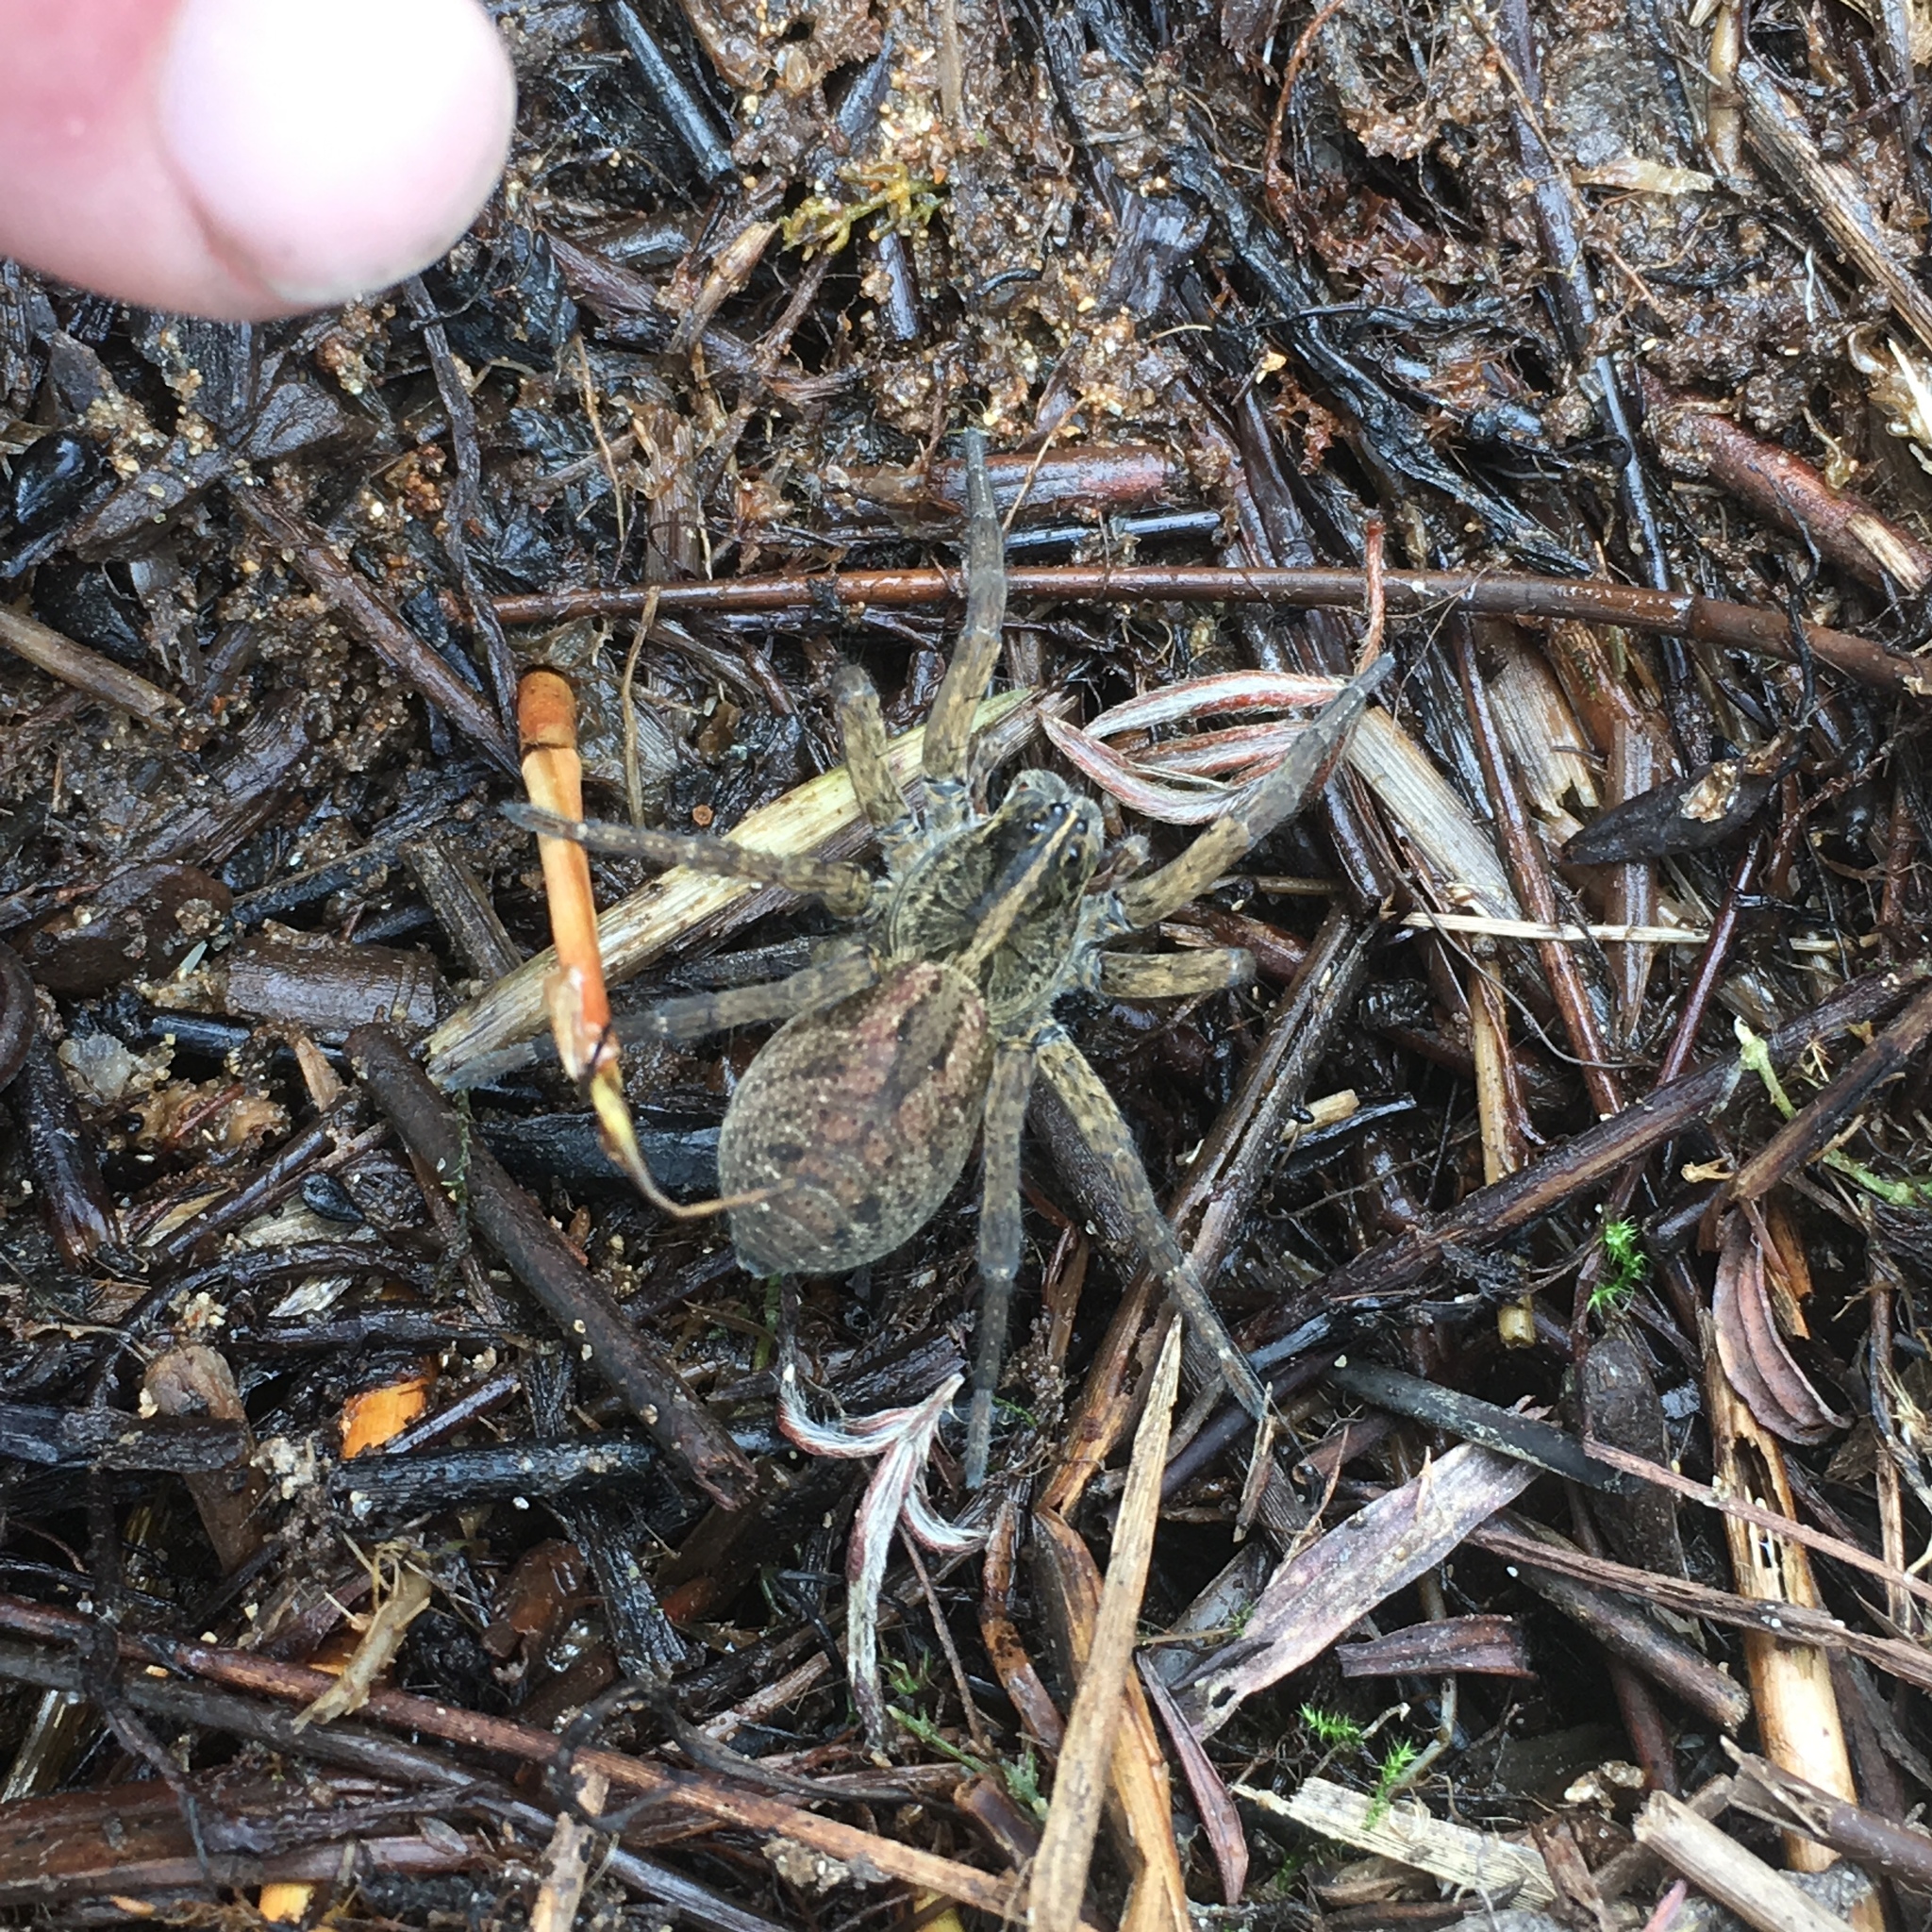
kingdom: Animalia
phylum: Arthropoda
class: Arachnida
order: Araneae
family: Lycosidae
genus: Tigrosa
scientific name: Tigrosa helluo
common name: Wetland giant wolf spider
